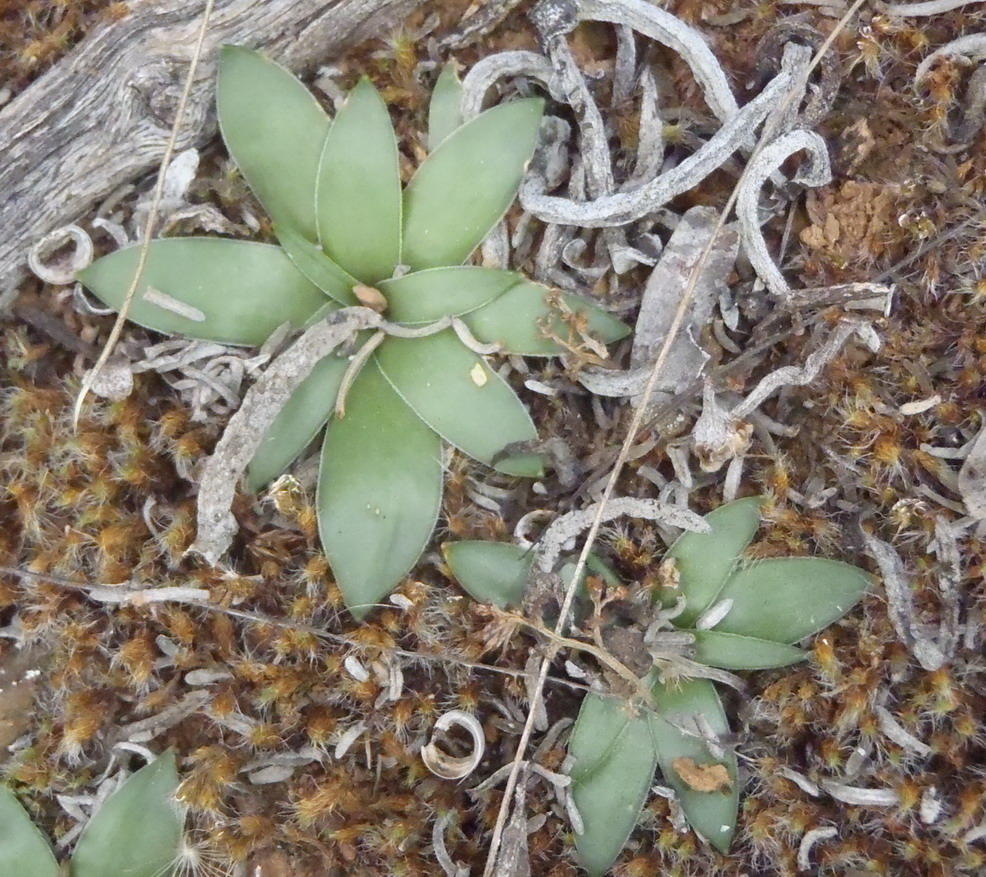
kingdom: Plantae
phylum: Tracheophyta
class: Liliopsida
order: Asparagales
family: Asparagaceae
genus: Drimia
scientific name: Drimia ciliata
